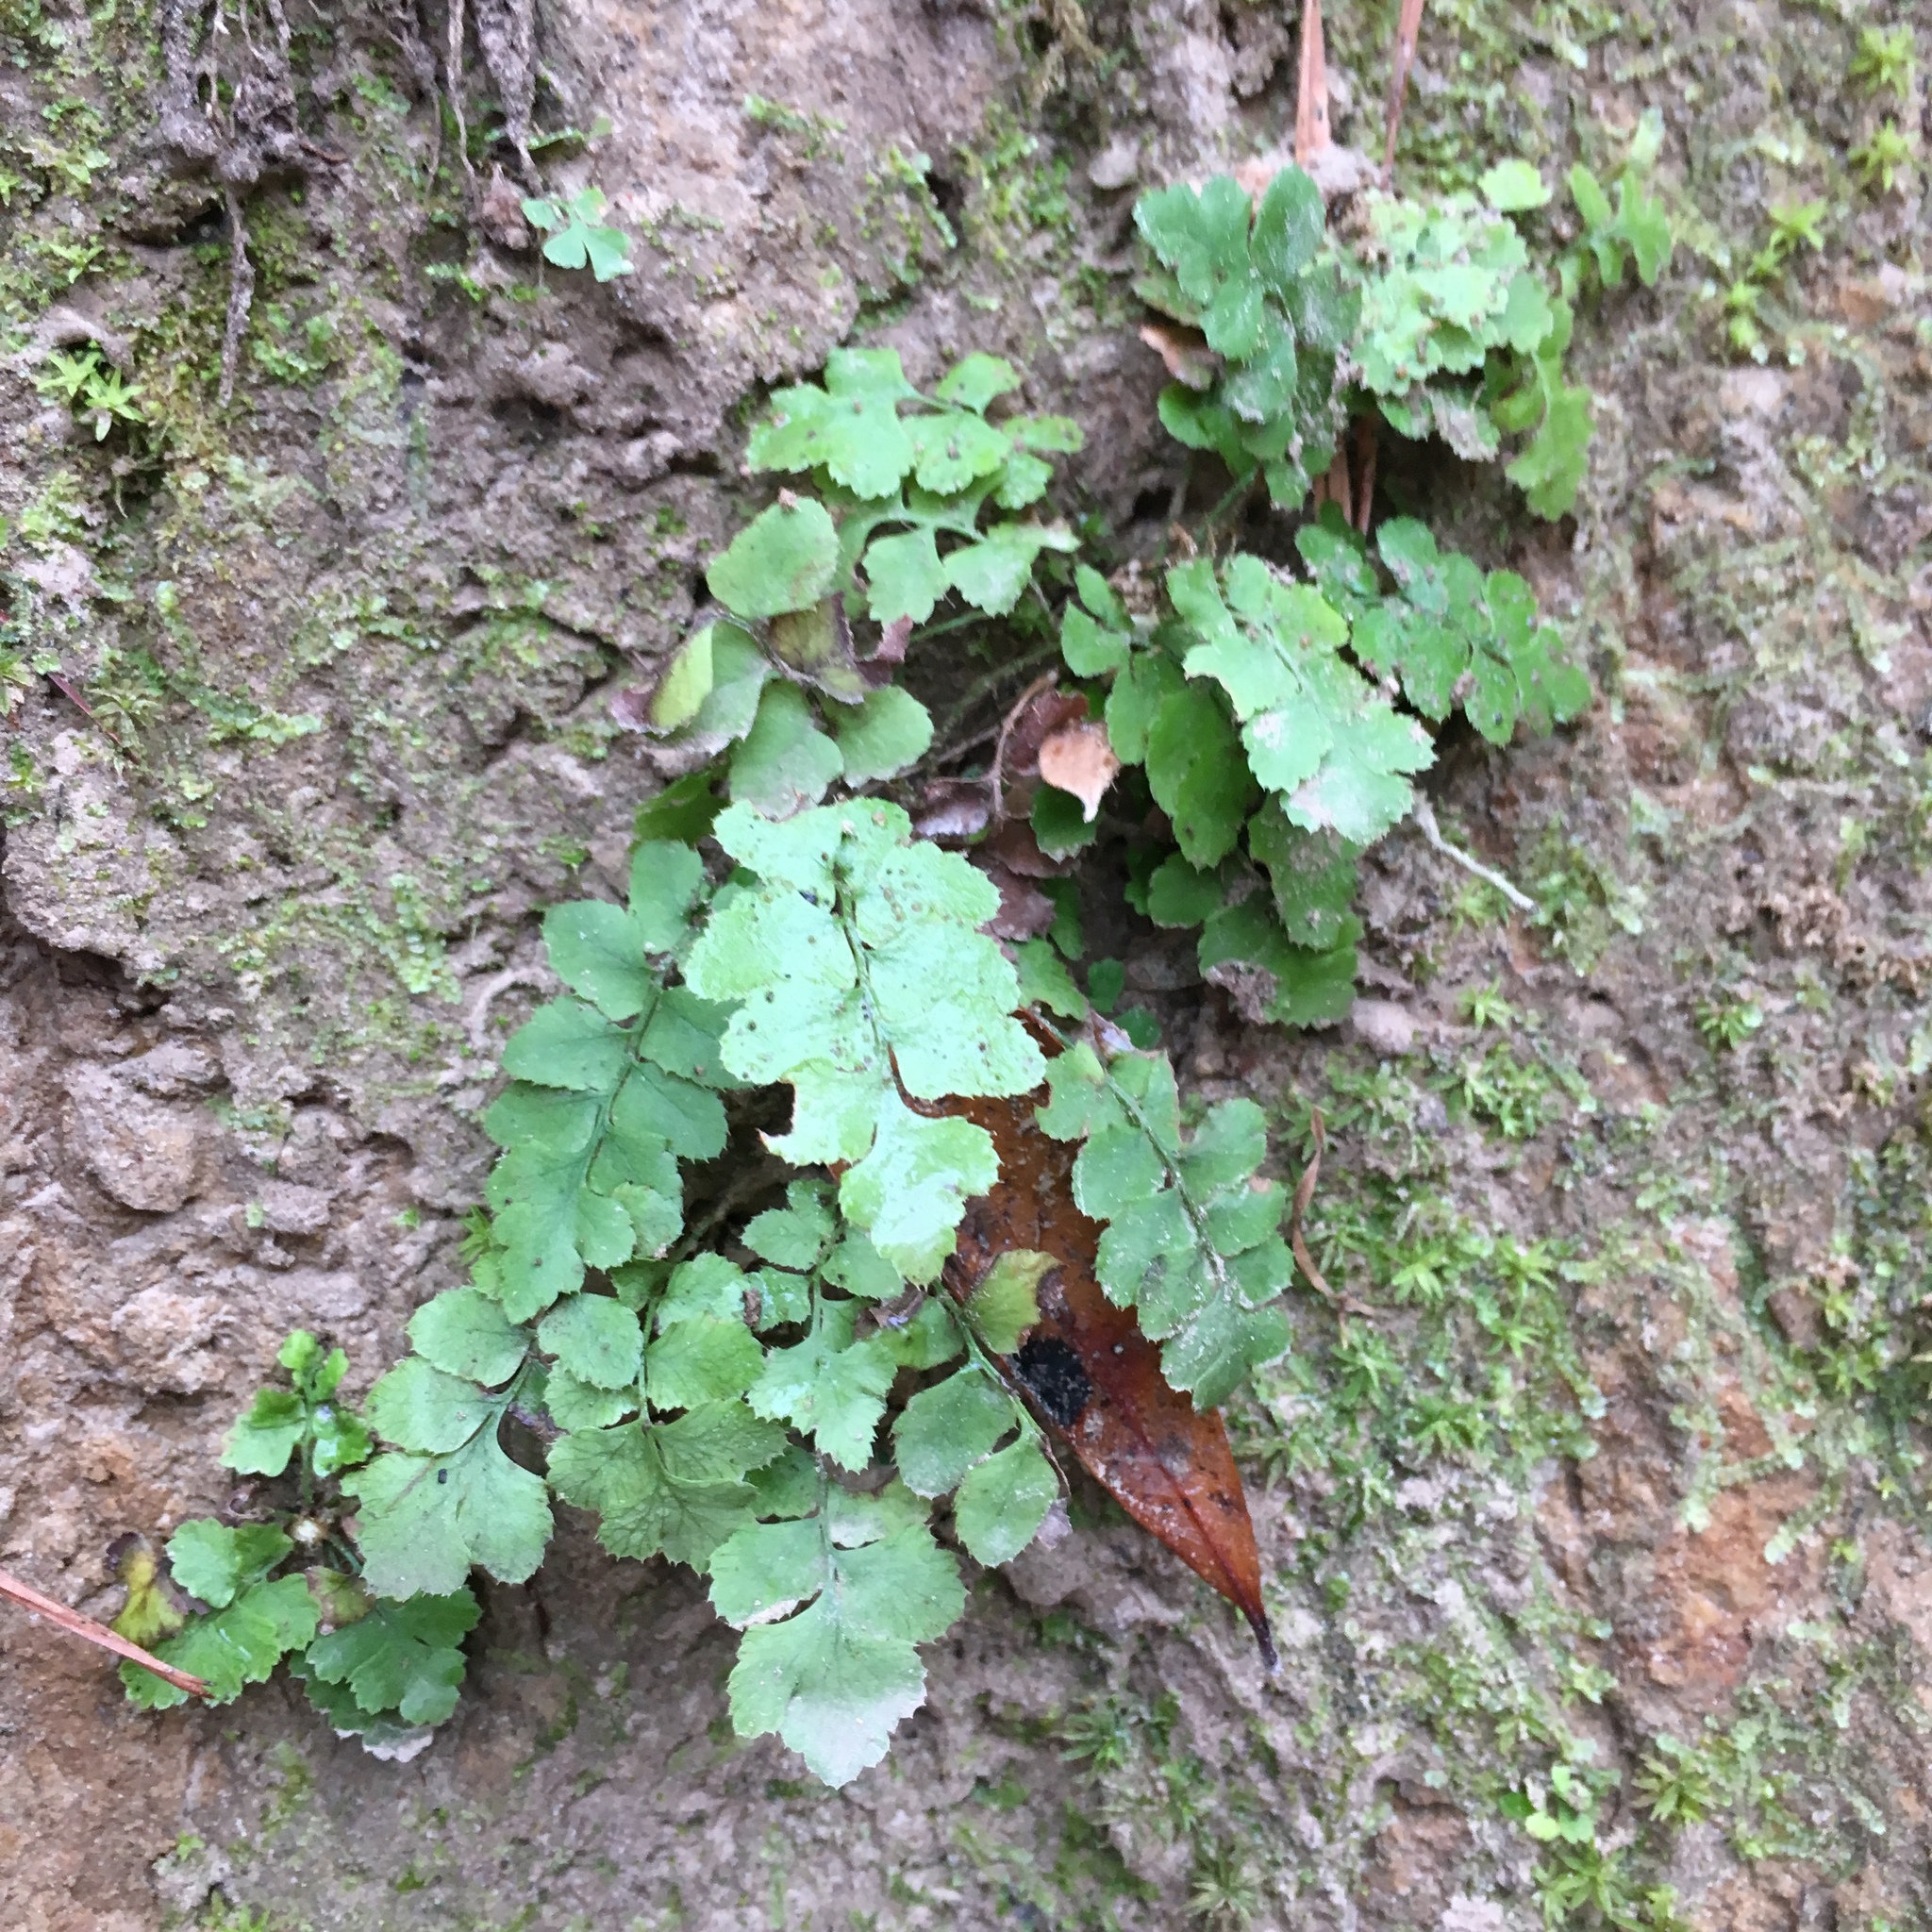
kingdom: Plantae
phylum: Tracheophyta
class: Polypodiopsida
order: Polypodiales
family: Dryopteridaceae
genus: Polystichum
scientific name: Polystichum acrostichoides
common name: Christmas fern
